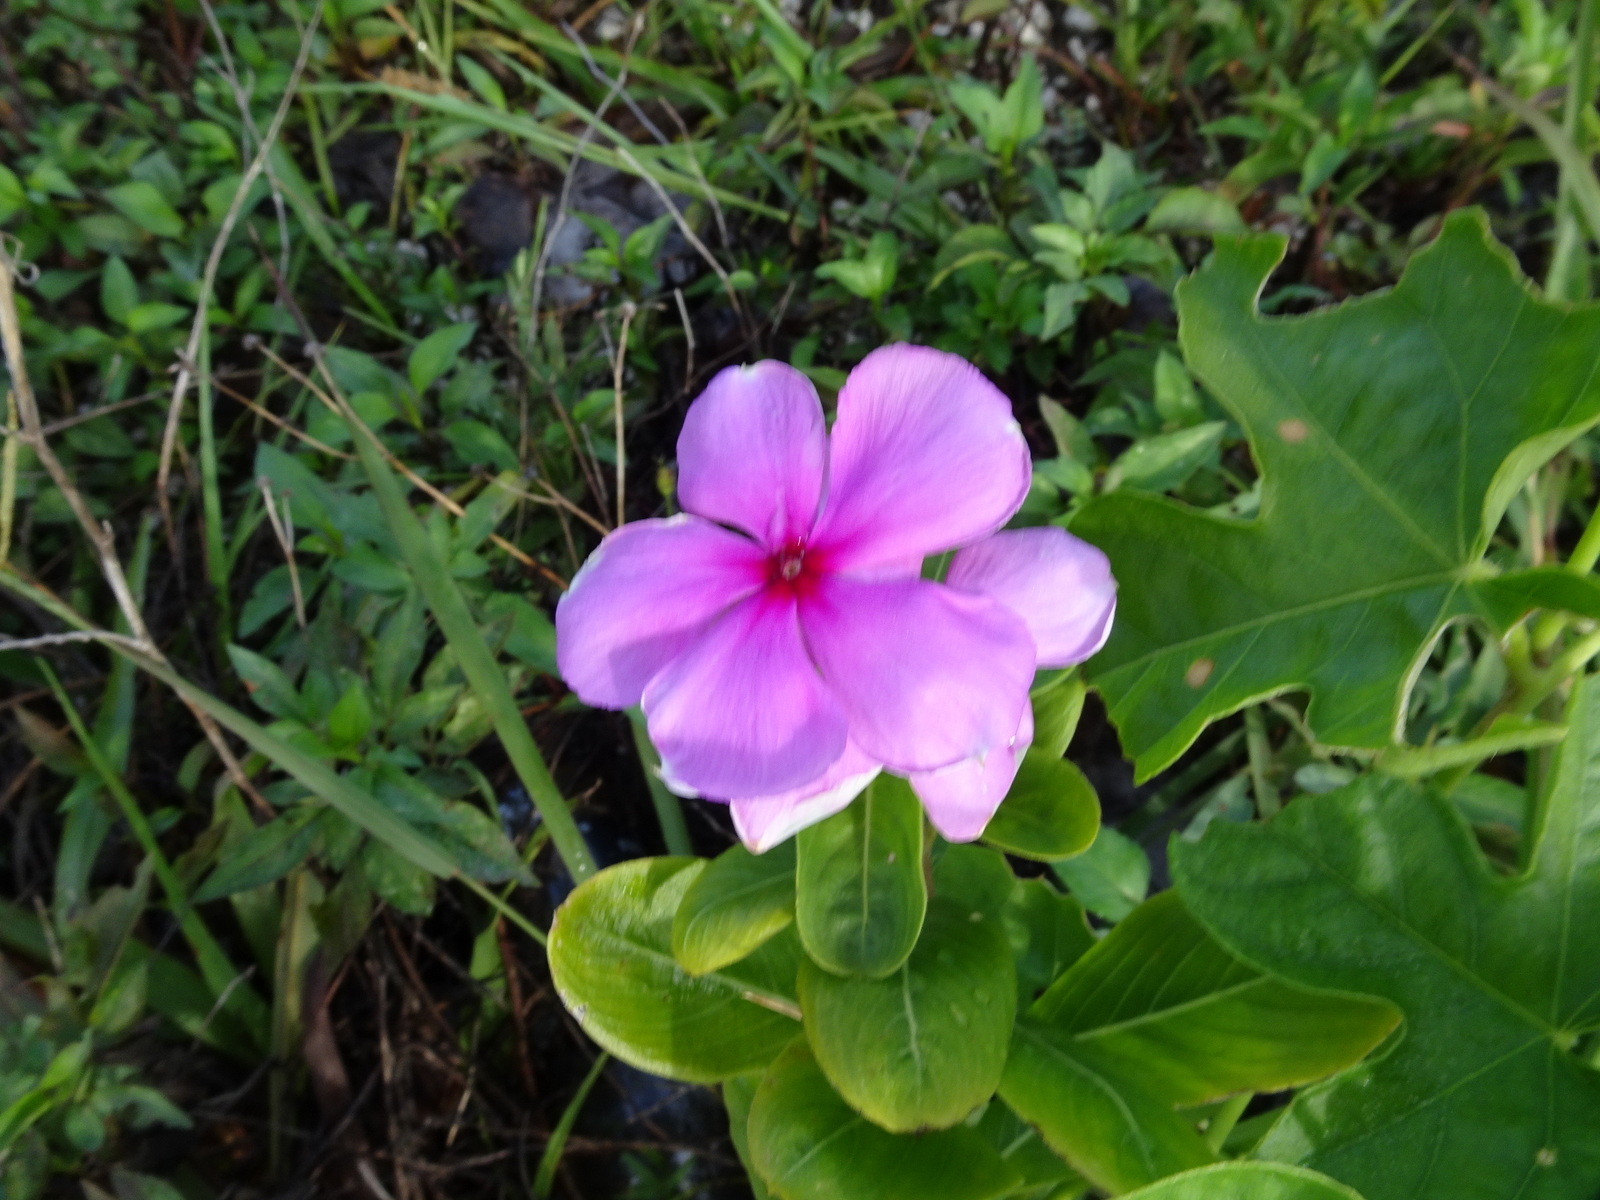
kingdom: Plantae
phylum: Tracheophyta
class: Magnoliopsida
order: Gentianales
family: Apocynaceae
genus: Catharanthus
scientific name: Catharanthus roseus
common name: Madagascar periwinkle
